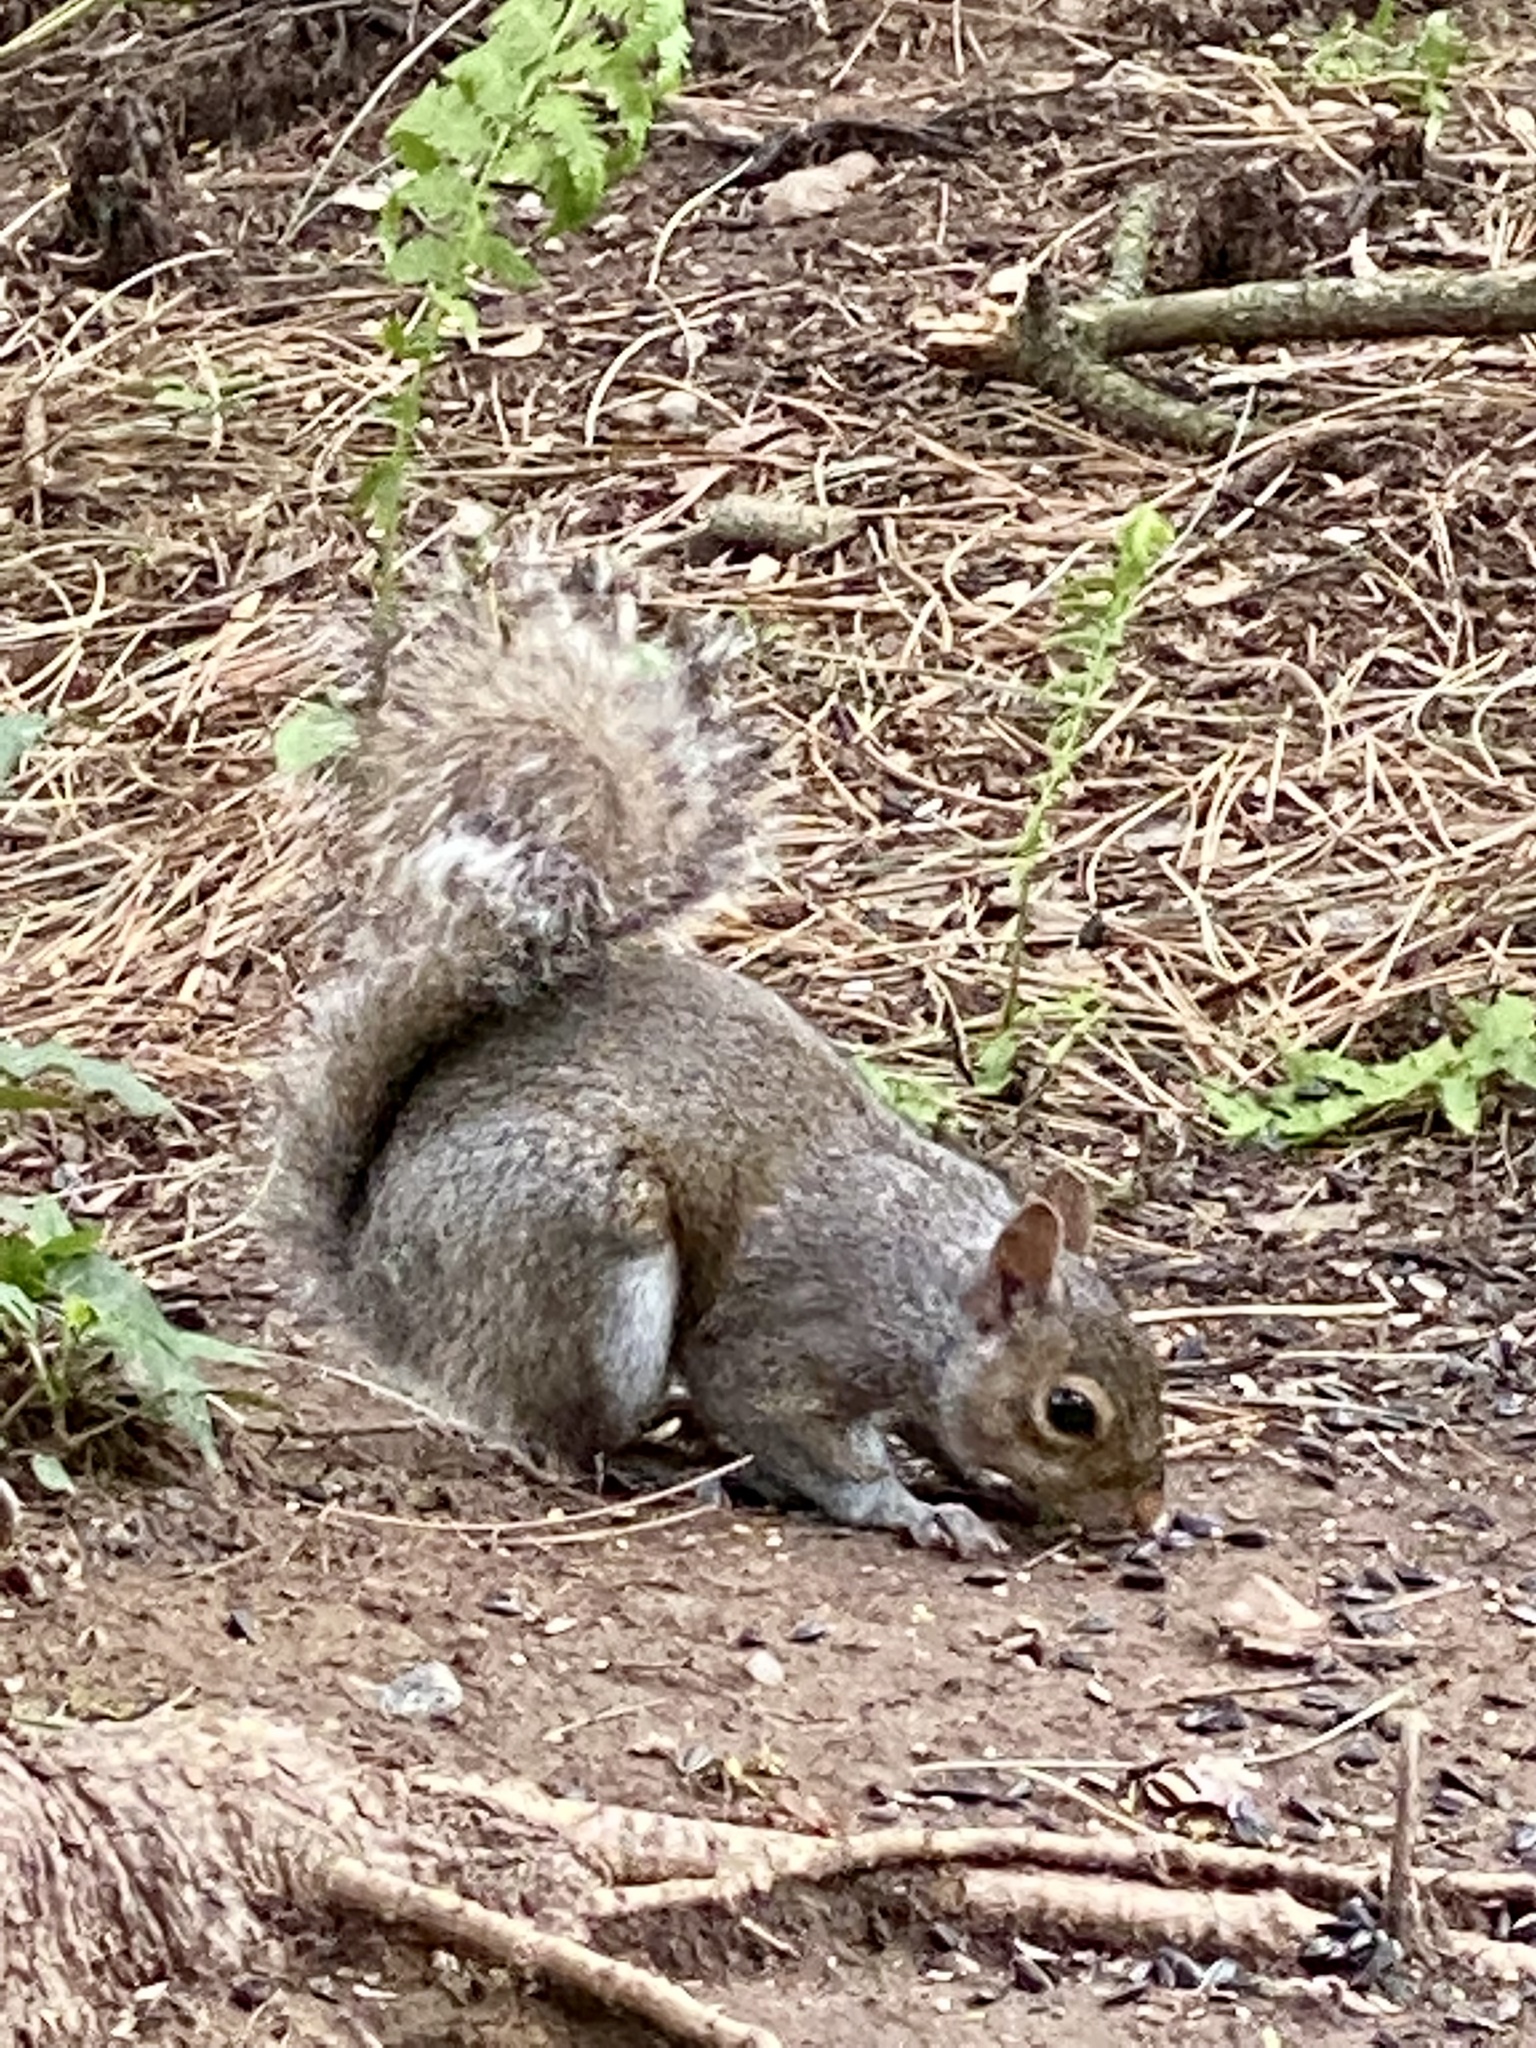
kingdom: Animalia
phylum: Chordata
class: Mammalia
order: Rodentia
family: Sciuridae
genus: Sciurus
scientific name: Sciurus carolinensis
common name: Eastern gray squirrel
